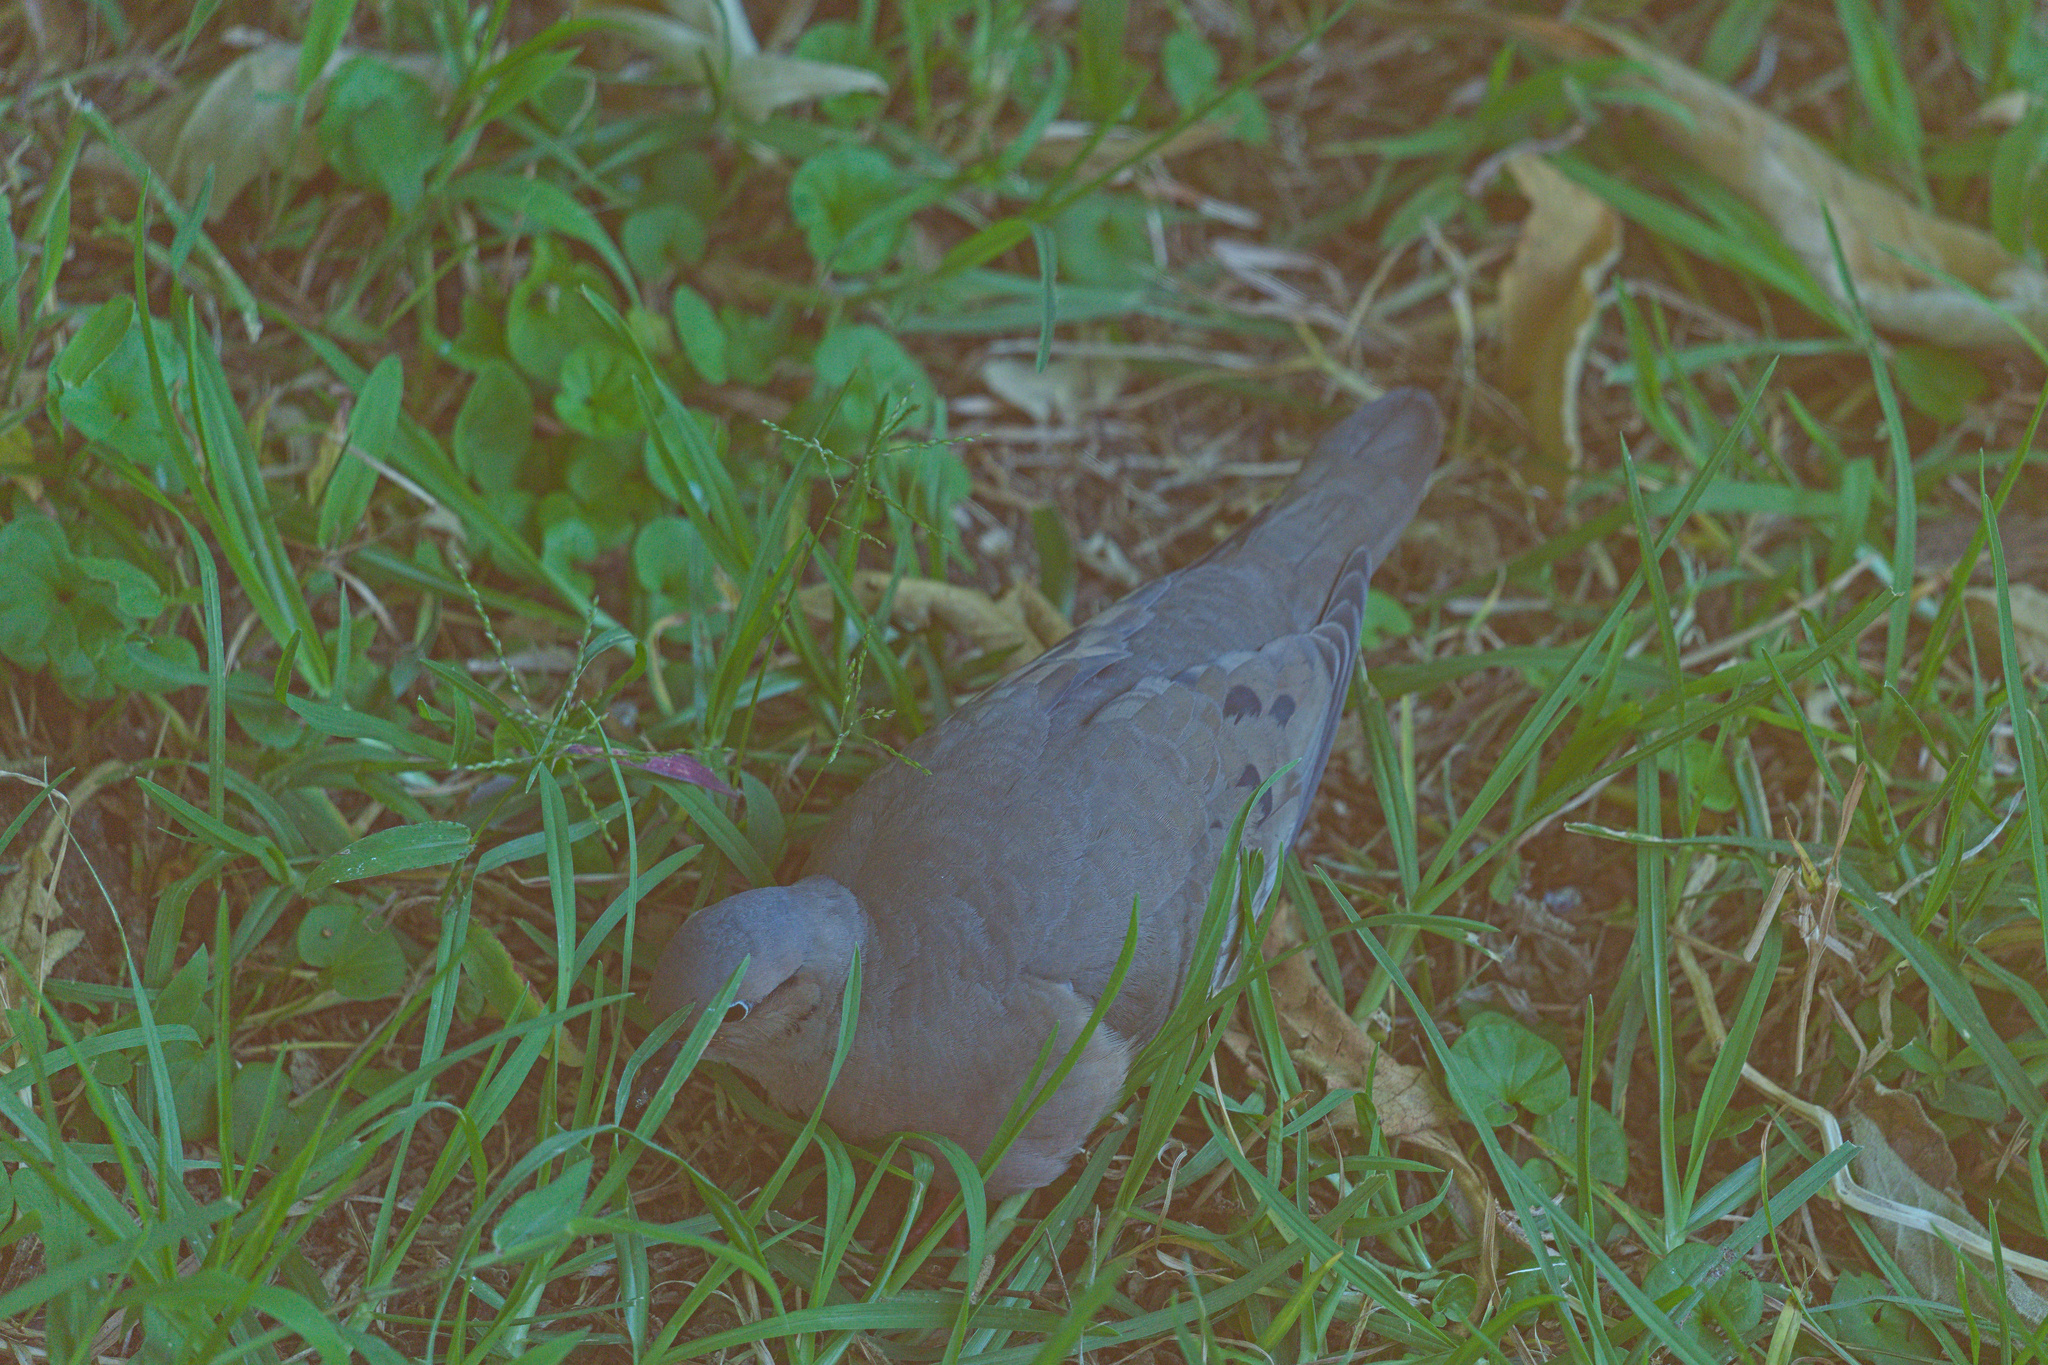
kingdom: Animalia
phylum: Chordata
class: Aves
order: Columbiformes
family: Columbidae
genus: Zenaida
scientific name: Zenaida auriculata
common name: Eared dove
